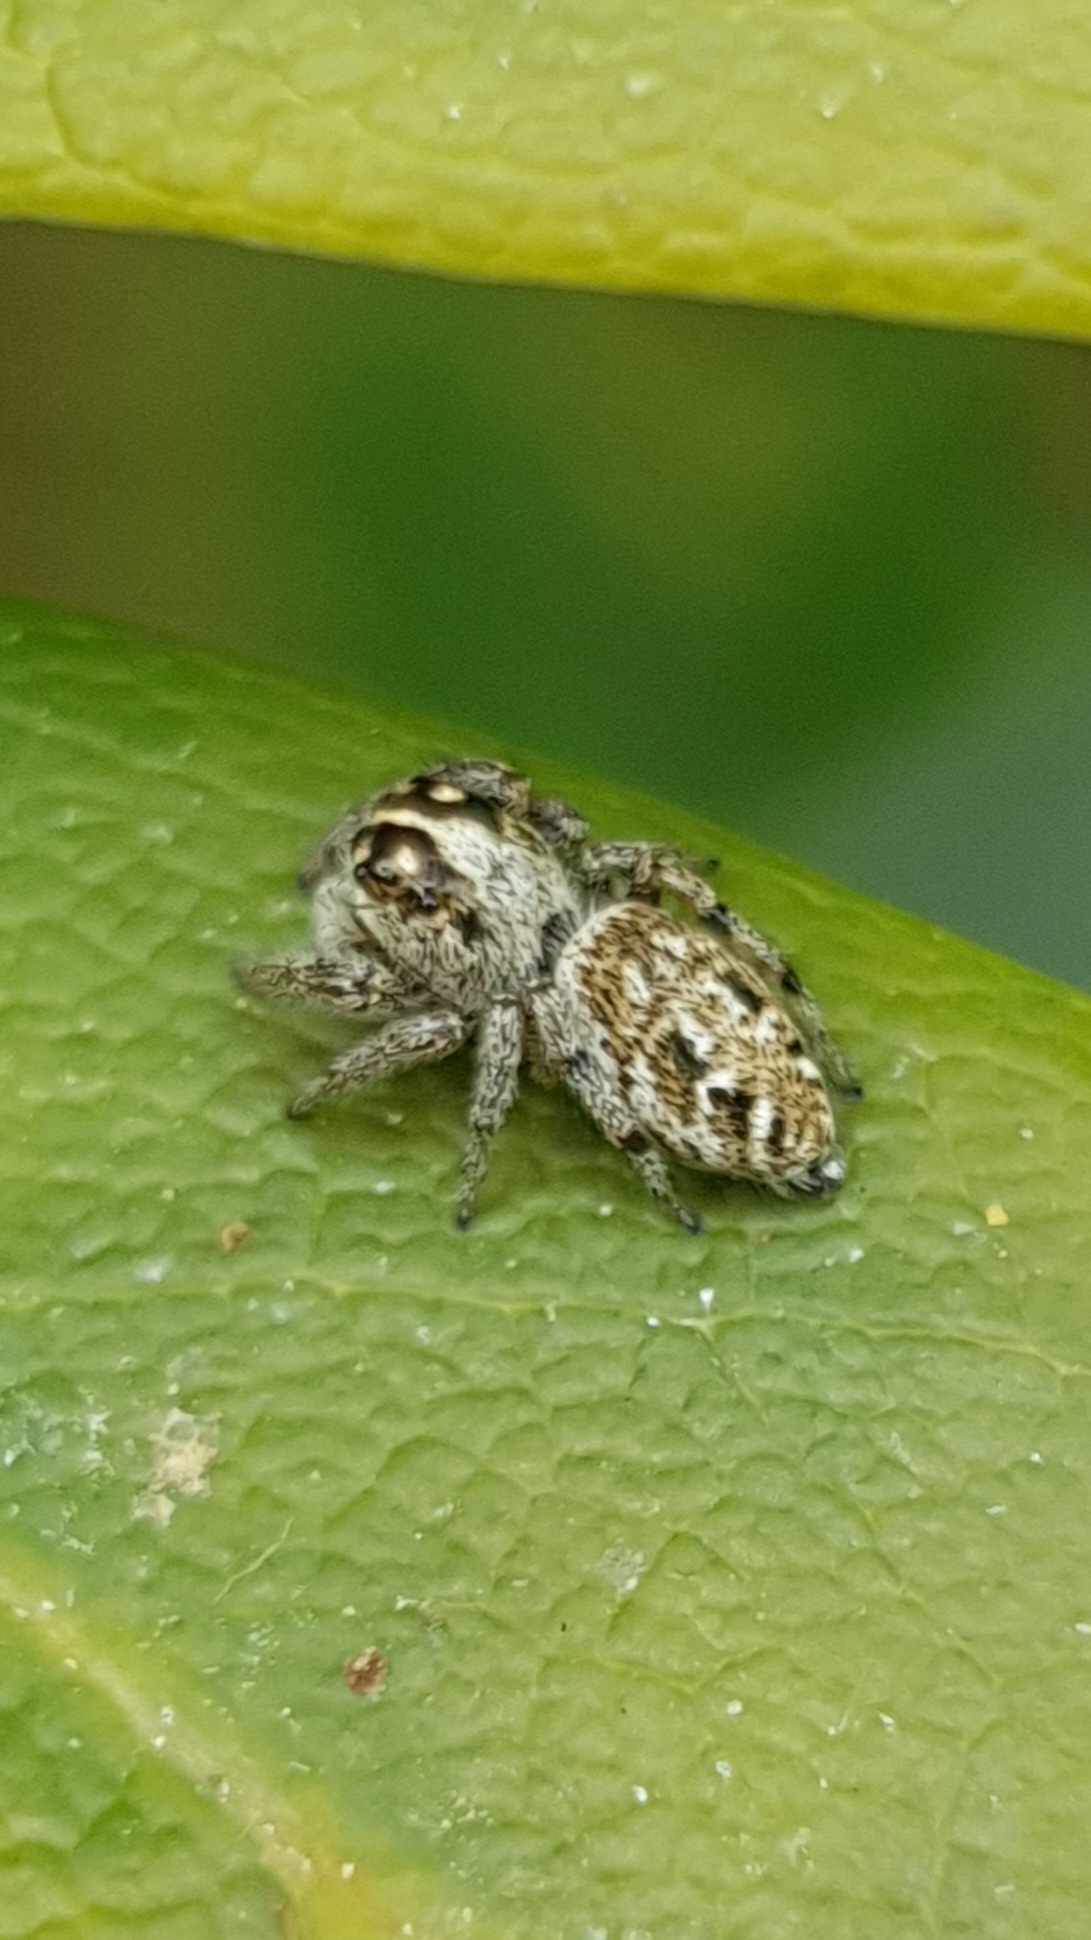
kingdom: Animalia
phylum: Arthropoda
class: Arachnida
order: Araneae
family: Salticidae
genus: Macaroeris
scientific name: Macaroeris nidicolens
